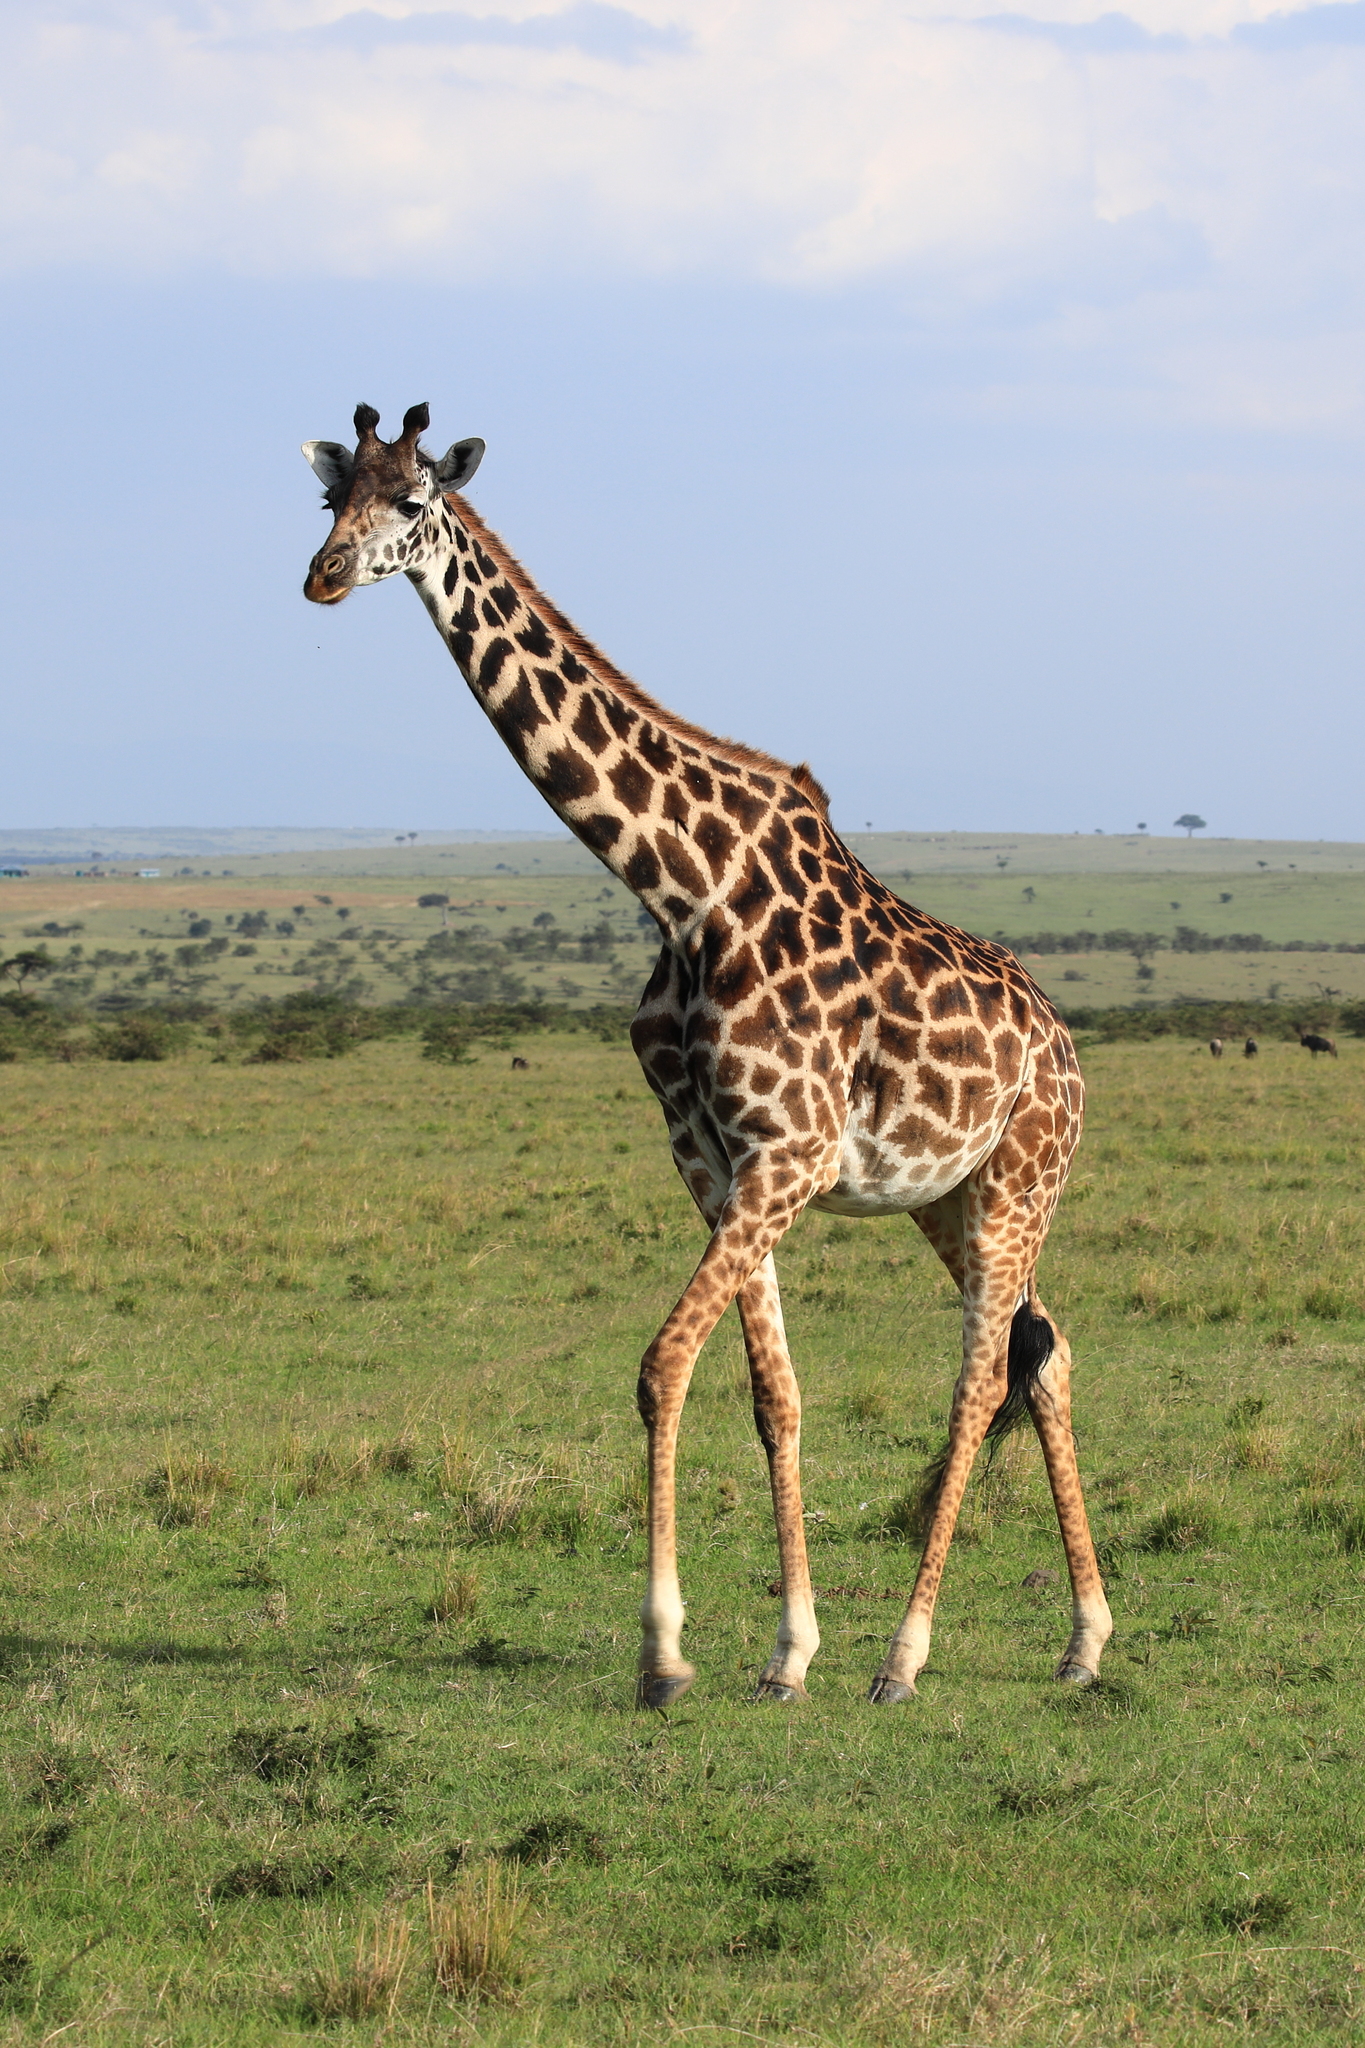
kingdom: Animalia
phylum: Chordata
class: Mammalia
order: Artiodactyla
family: Giraffidae
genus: Giraffa
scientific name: Giraffa tippelskirchi
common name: Masai giraffe
